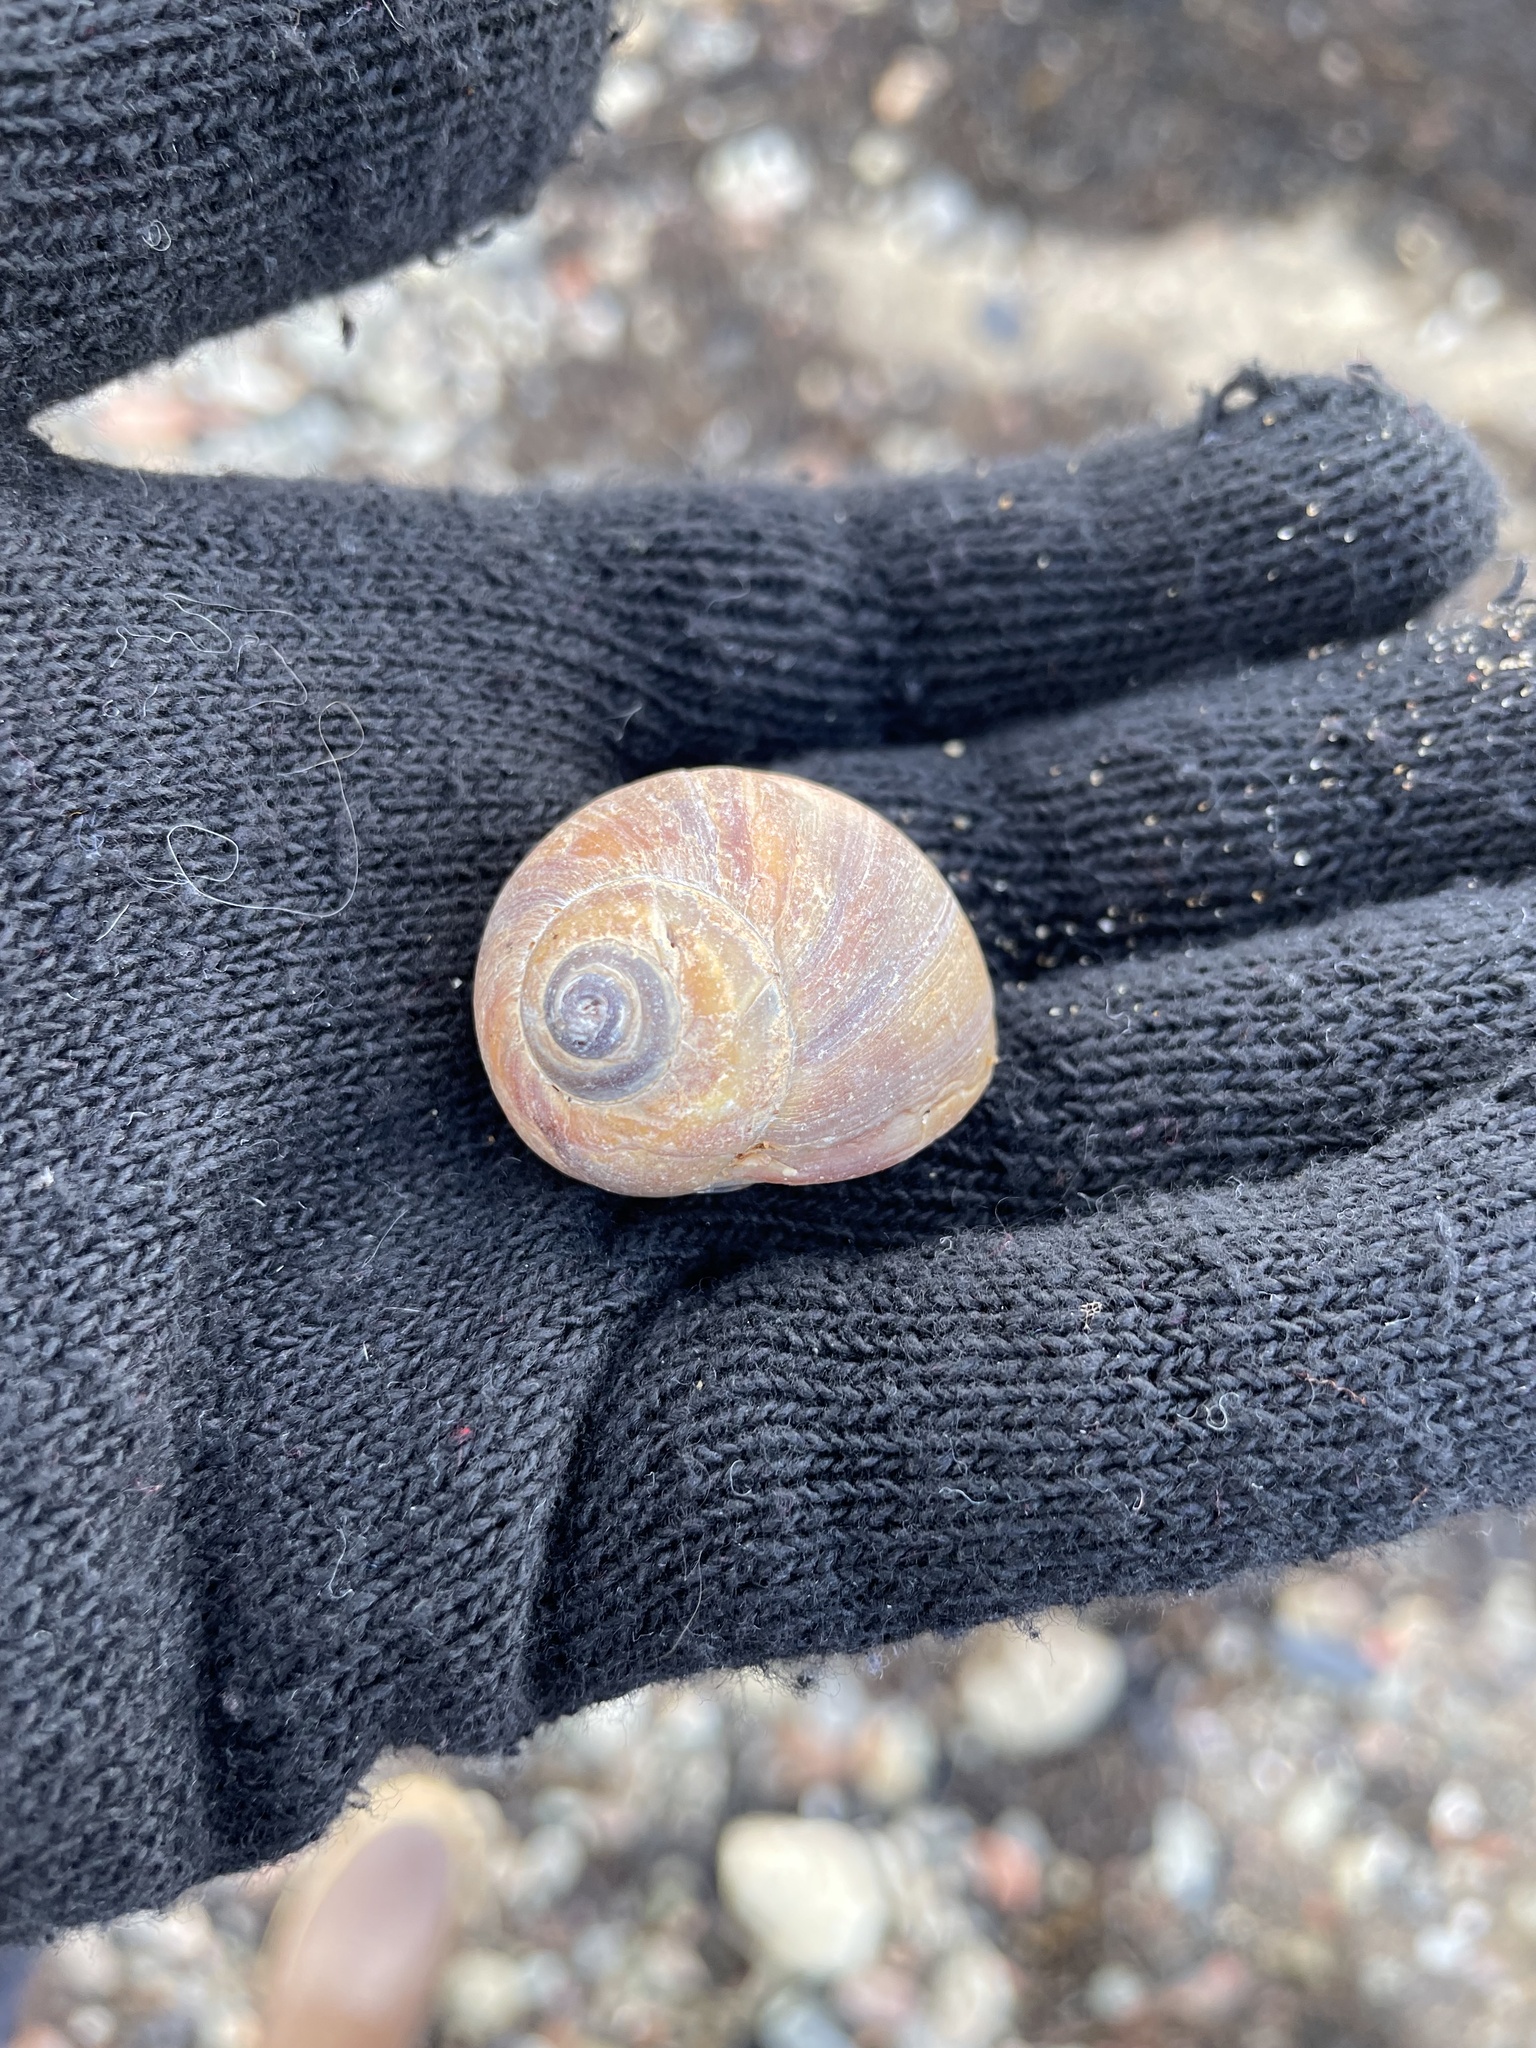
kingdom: Animalia
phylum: Mollusca
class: Gastropoda
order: Littorinimorpha
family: Naticidae
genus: Euspira
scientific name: Euspira heros
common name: Common northern moonsnail
